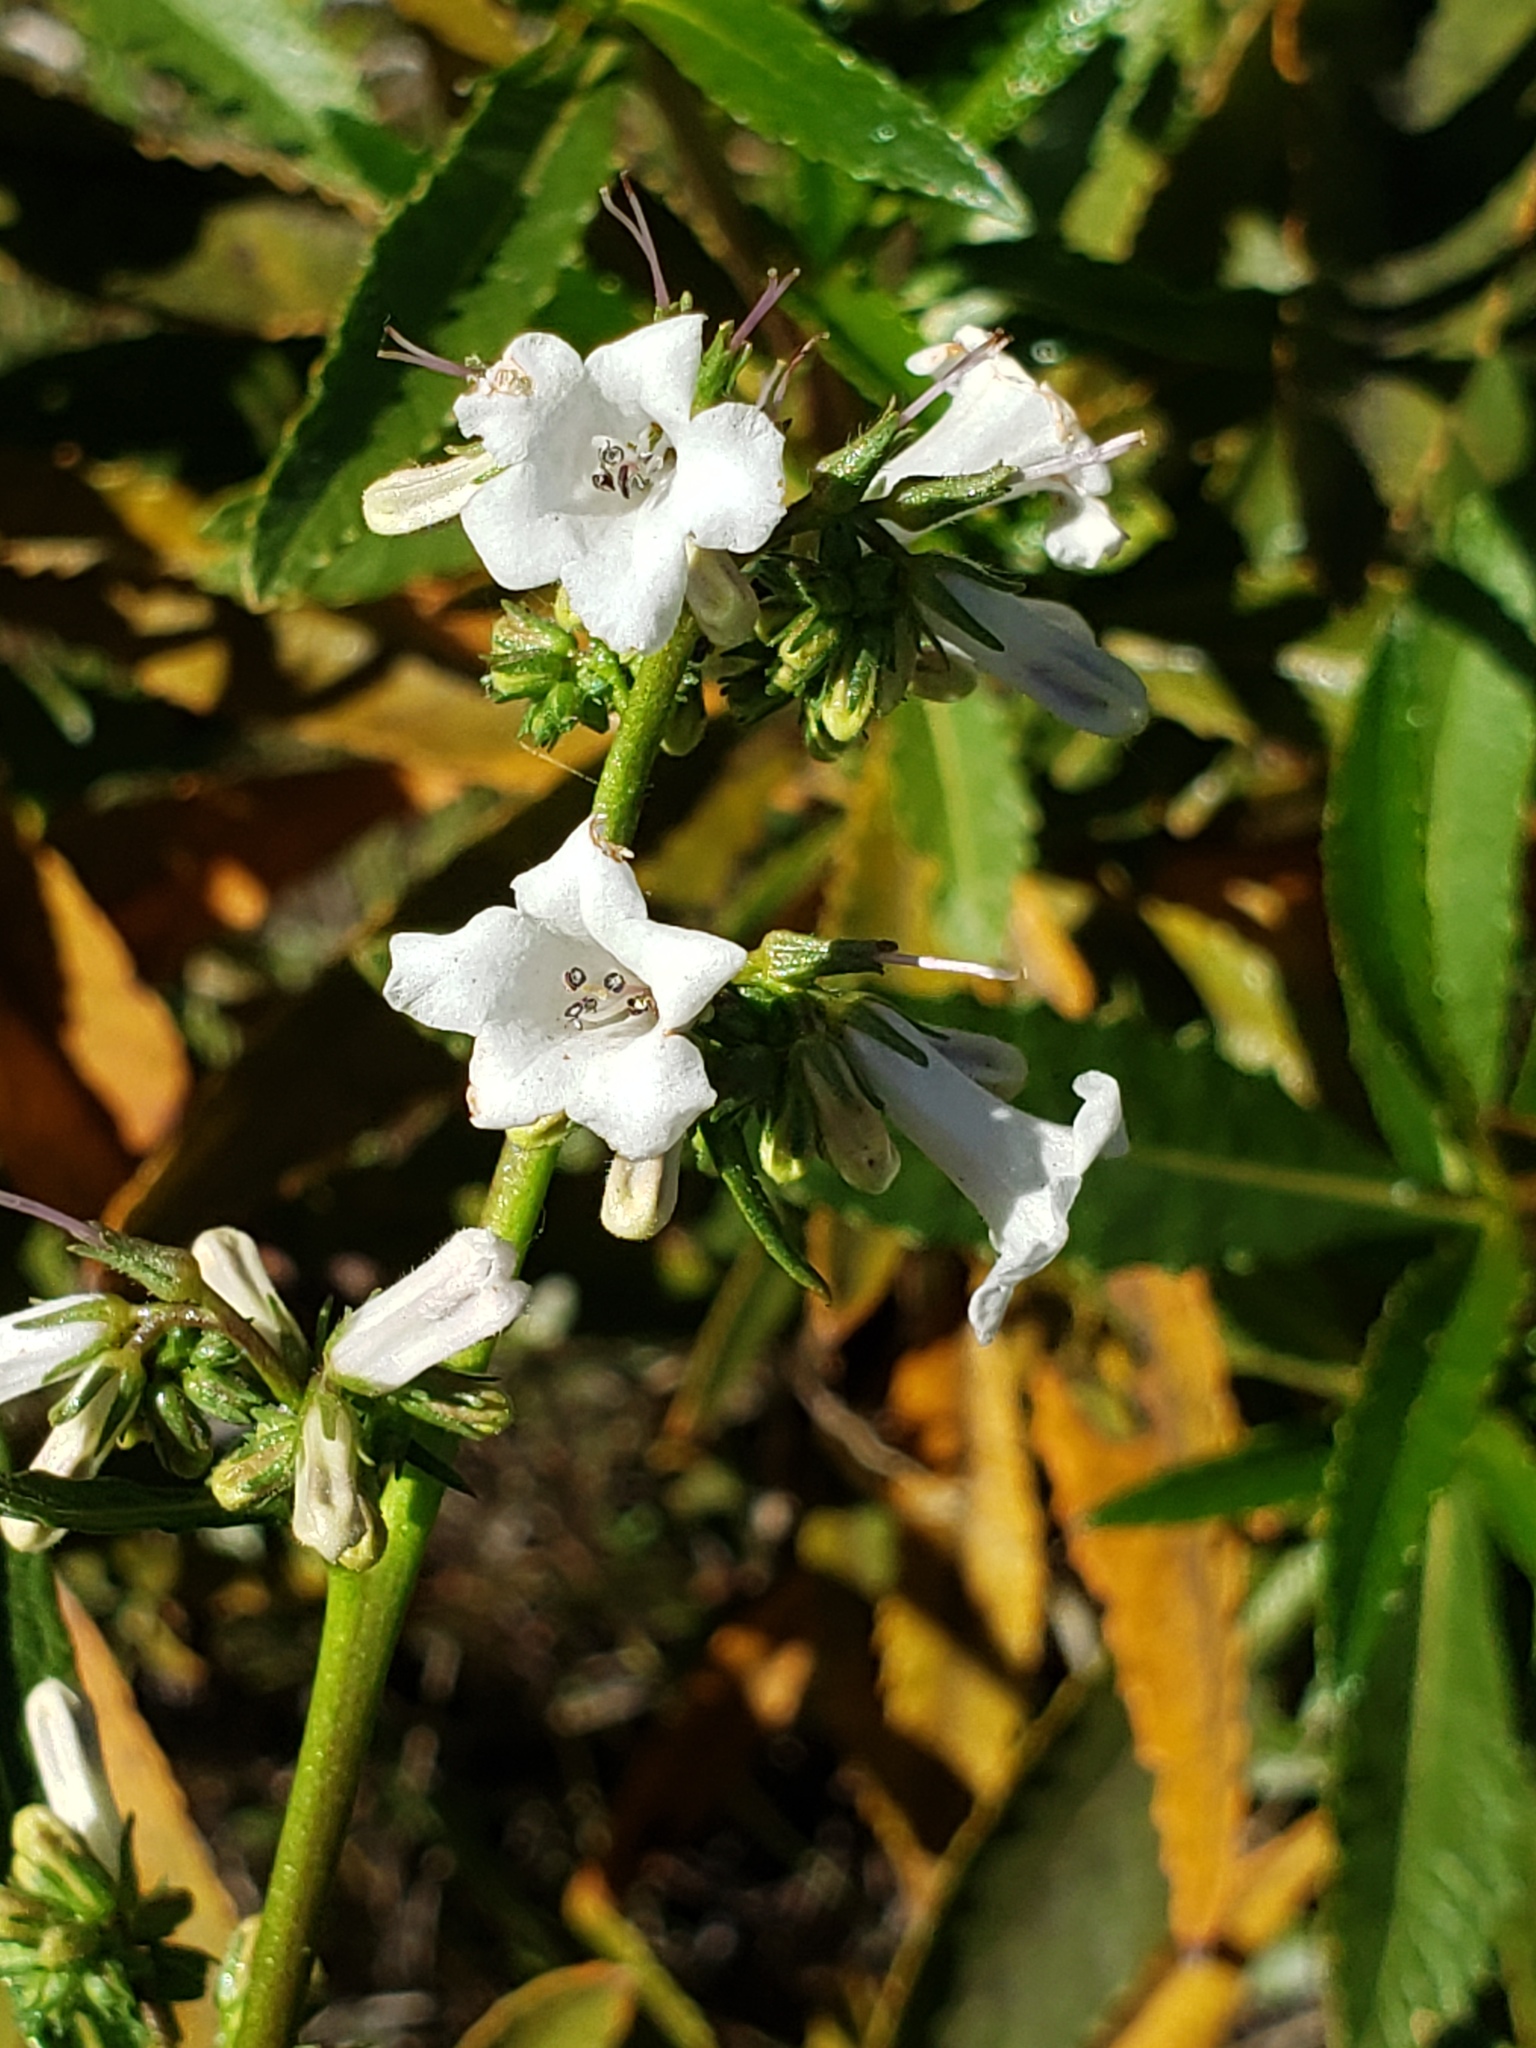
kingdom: Plantae
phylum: Tracheophyta
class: Magnoliopsida
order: Boraginales
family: Namaceae
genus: Eriodictyon
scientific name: Eriodictyon californicum
